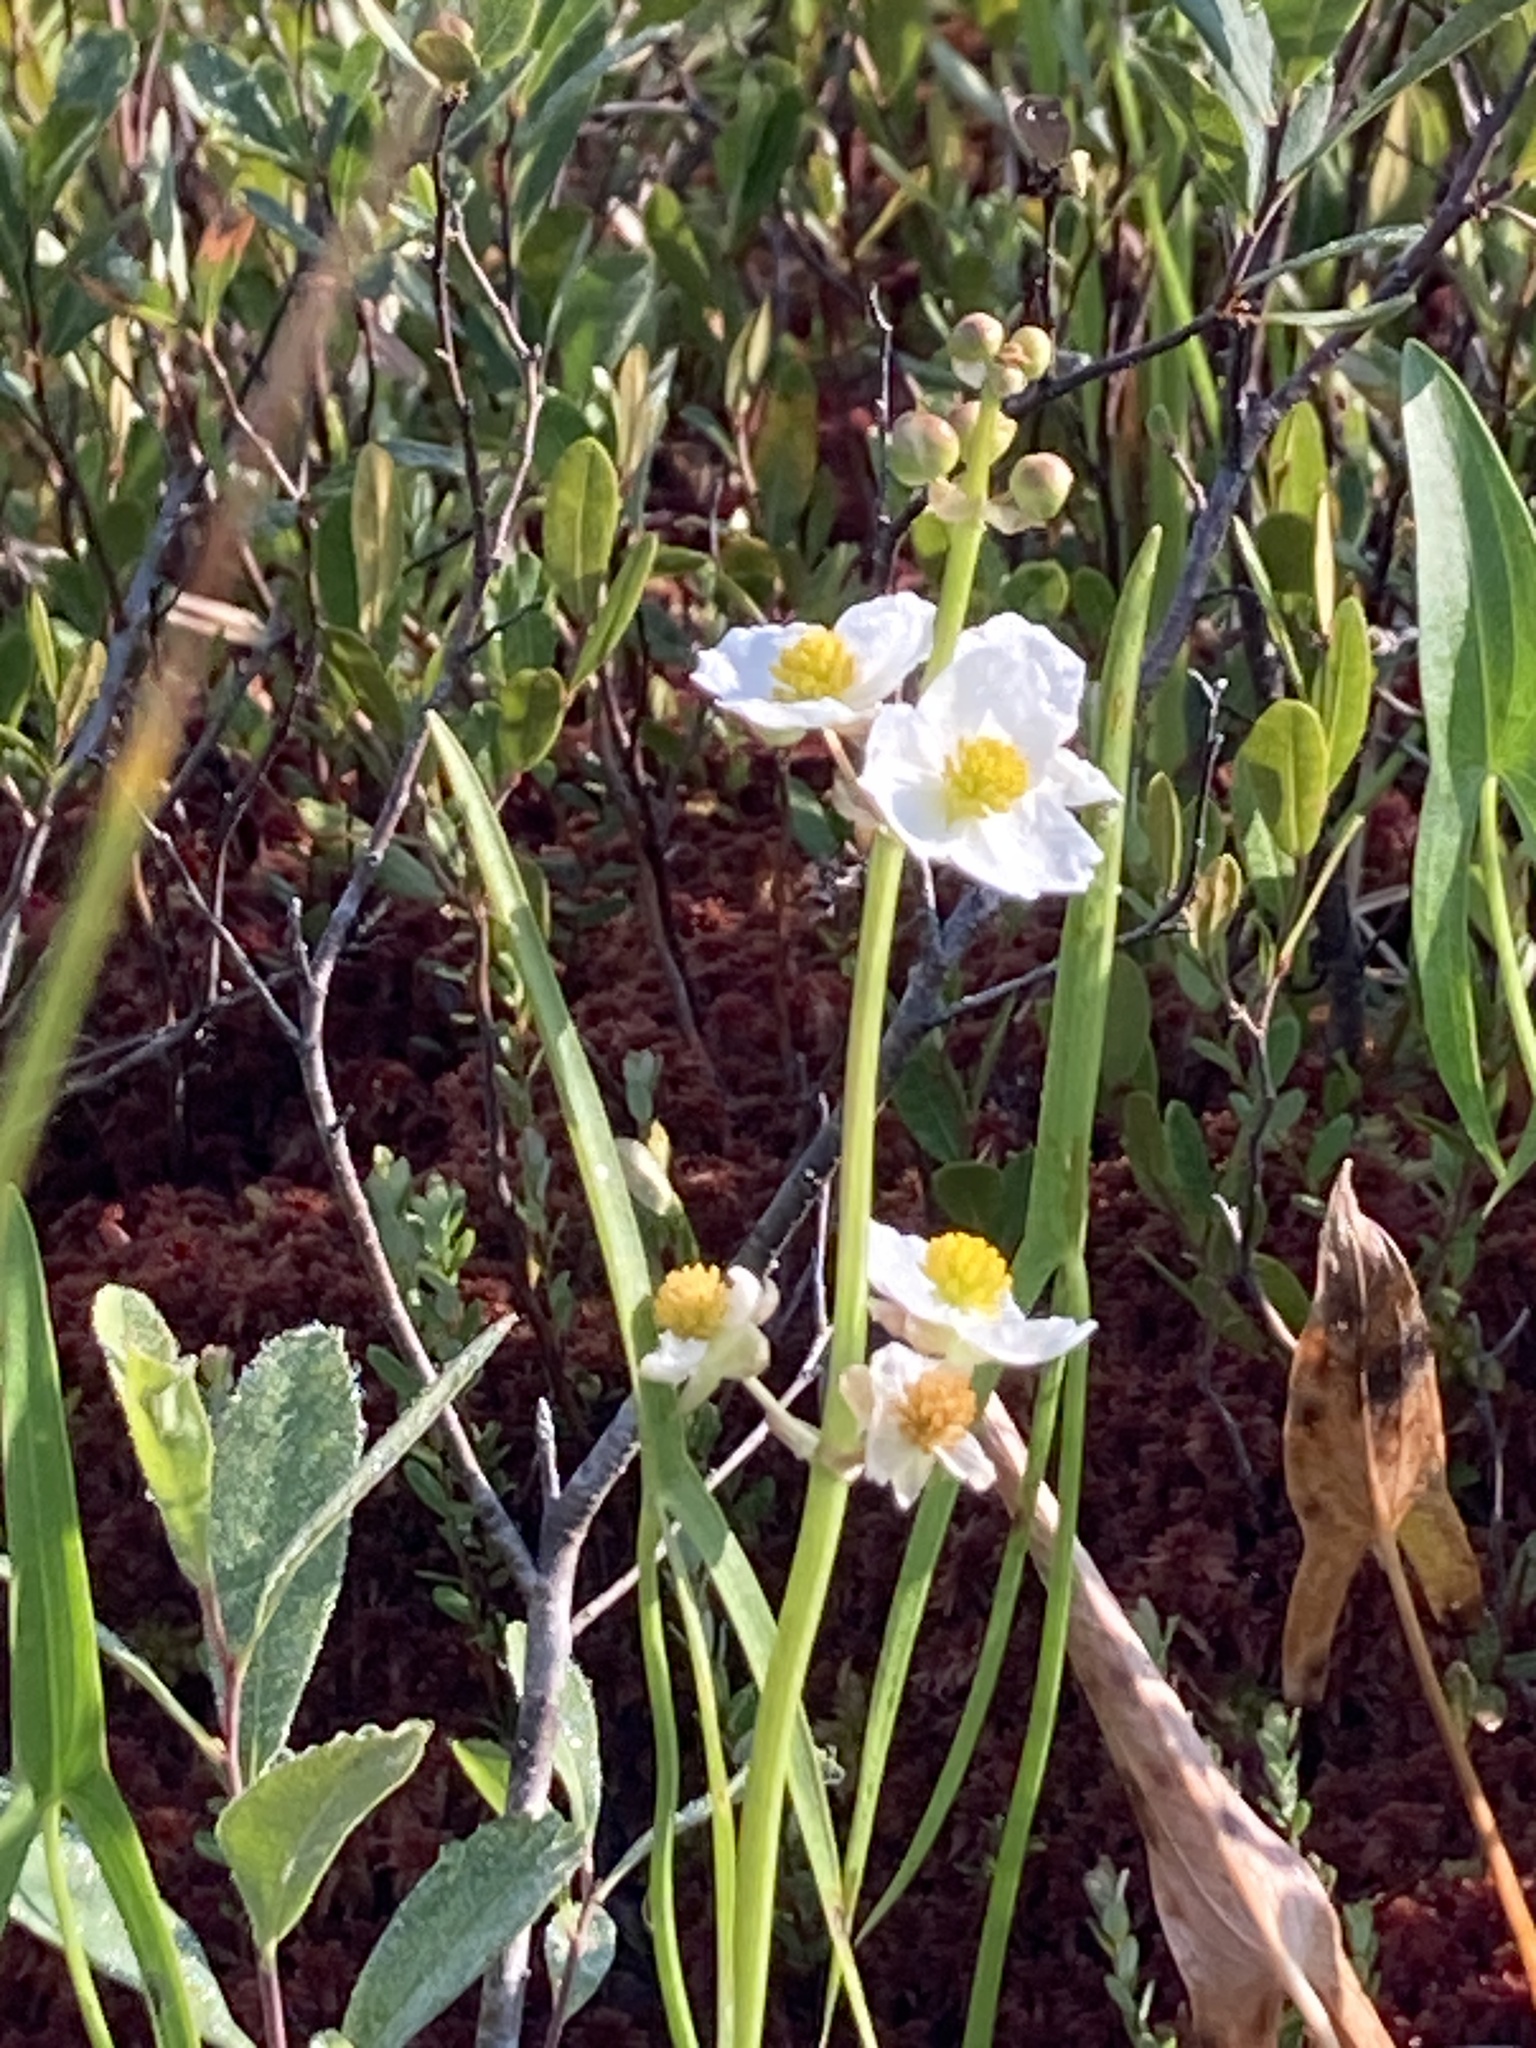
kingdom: Plantae
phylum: Tracheophyta
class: Liliopsida
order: Alismatales
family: Alismataceae
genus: Sagittaria
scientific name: Sagittaria latifolia
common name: Duck-potato
